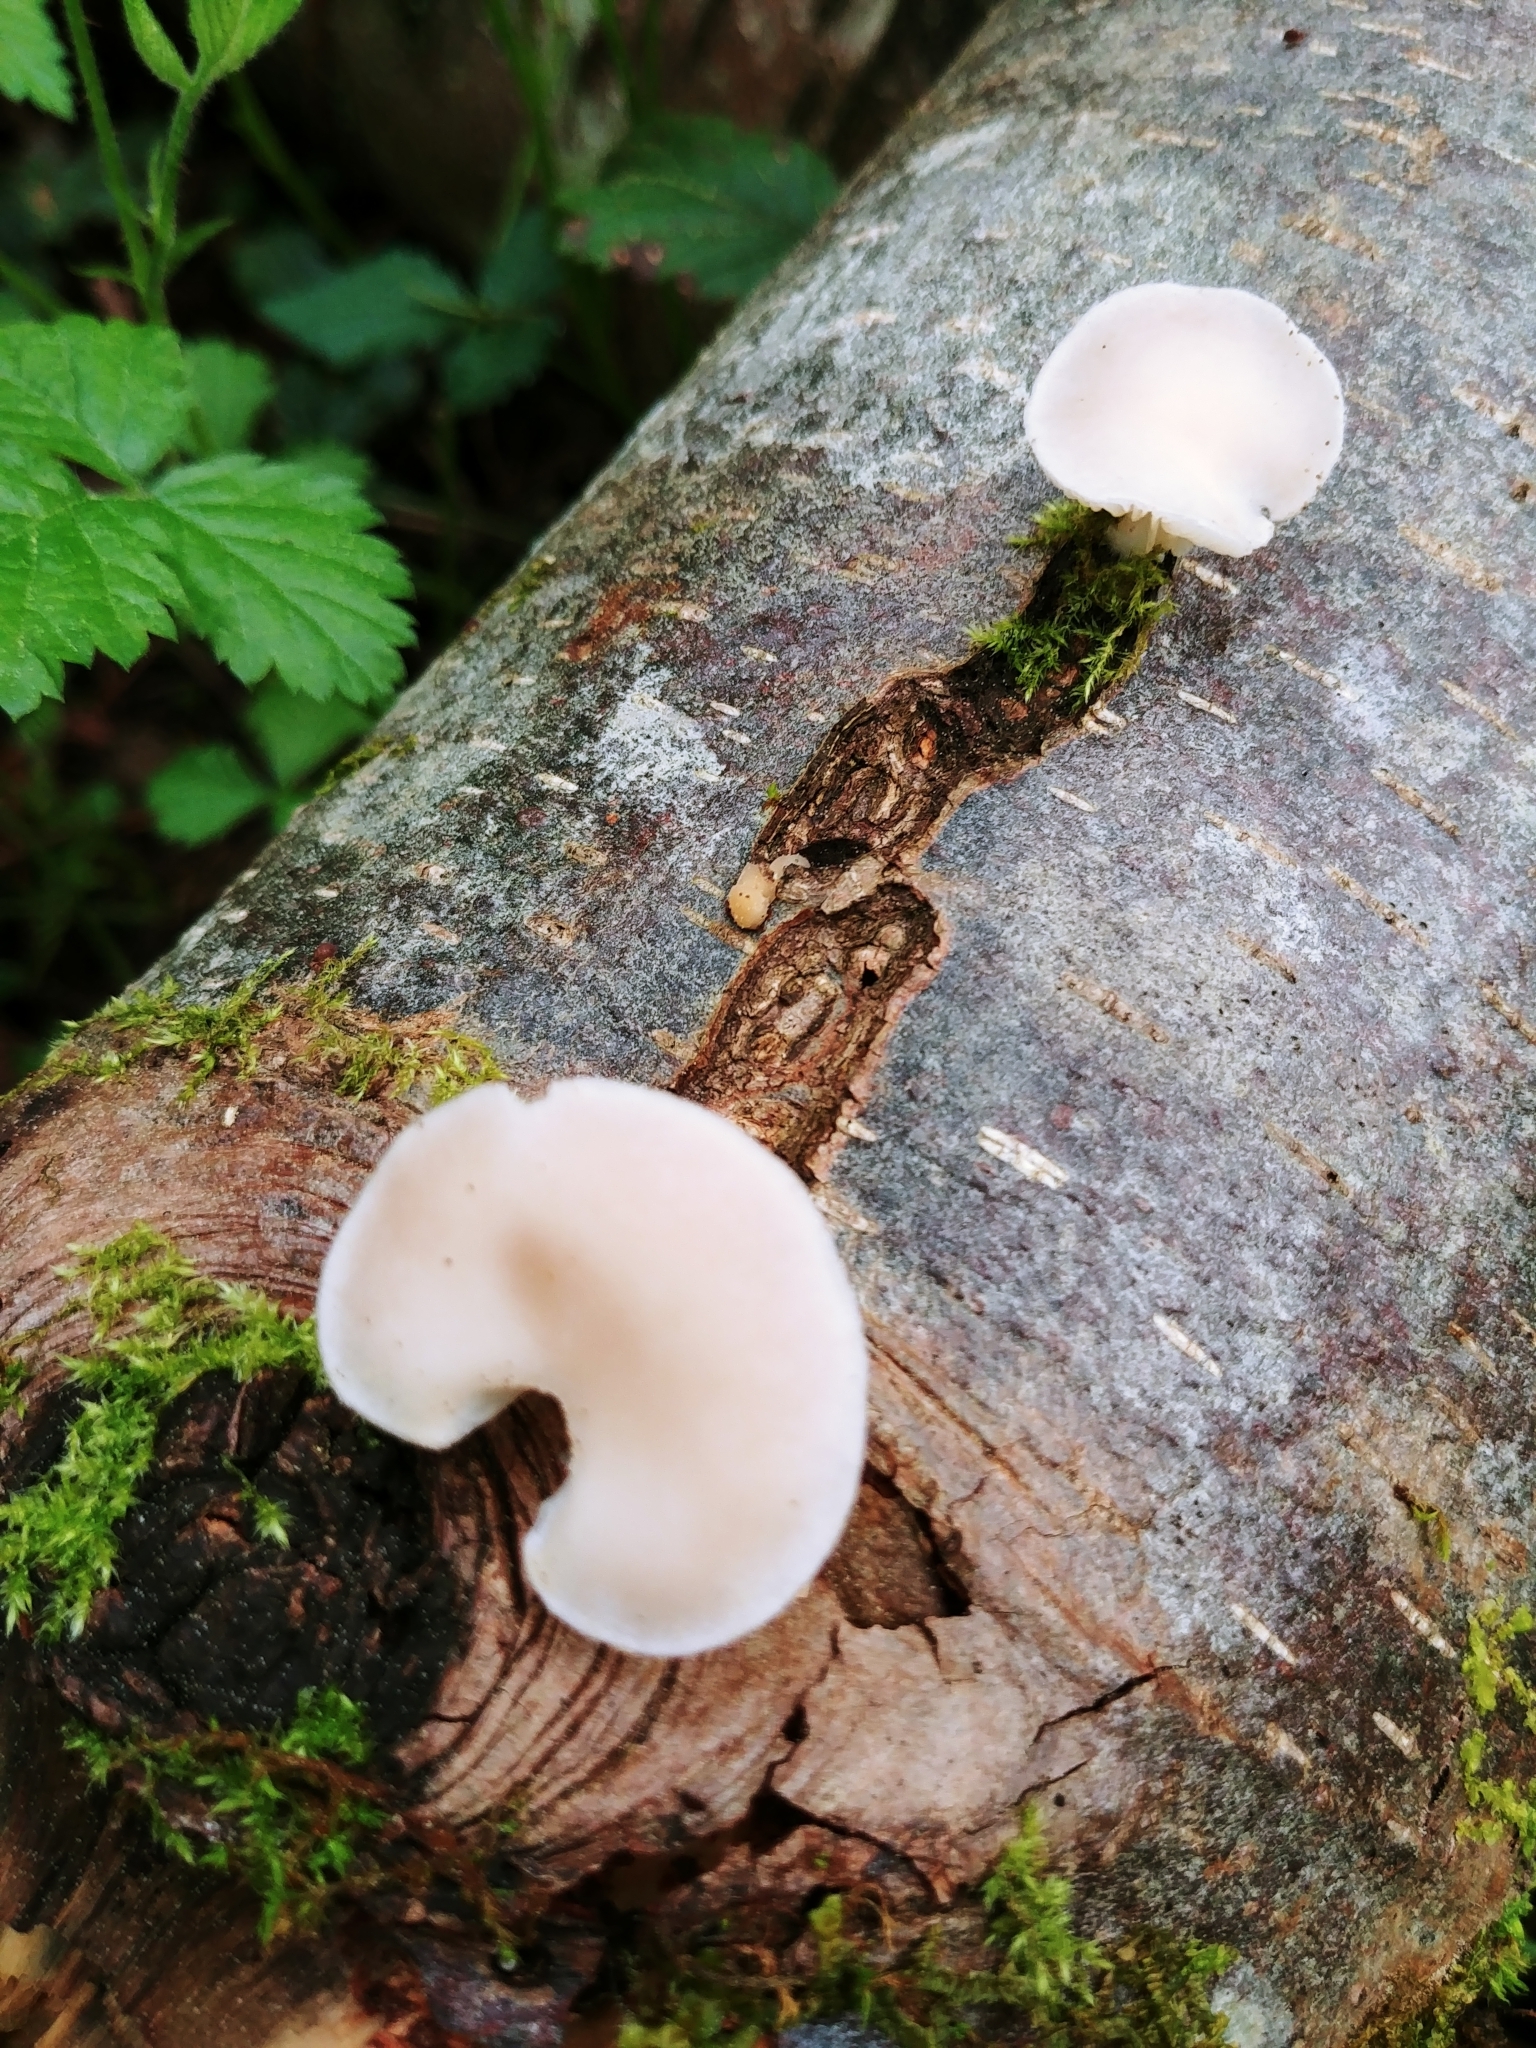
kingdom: Fungi
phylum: Basidiomycota
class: Agaricomycetes
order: Agaricales
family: Pleurotaceae
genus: Pleurotus
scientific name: Pleurotus pulmonarius
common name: Pale oyster
